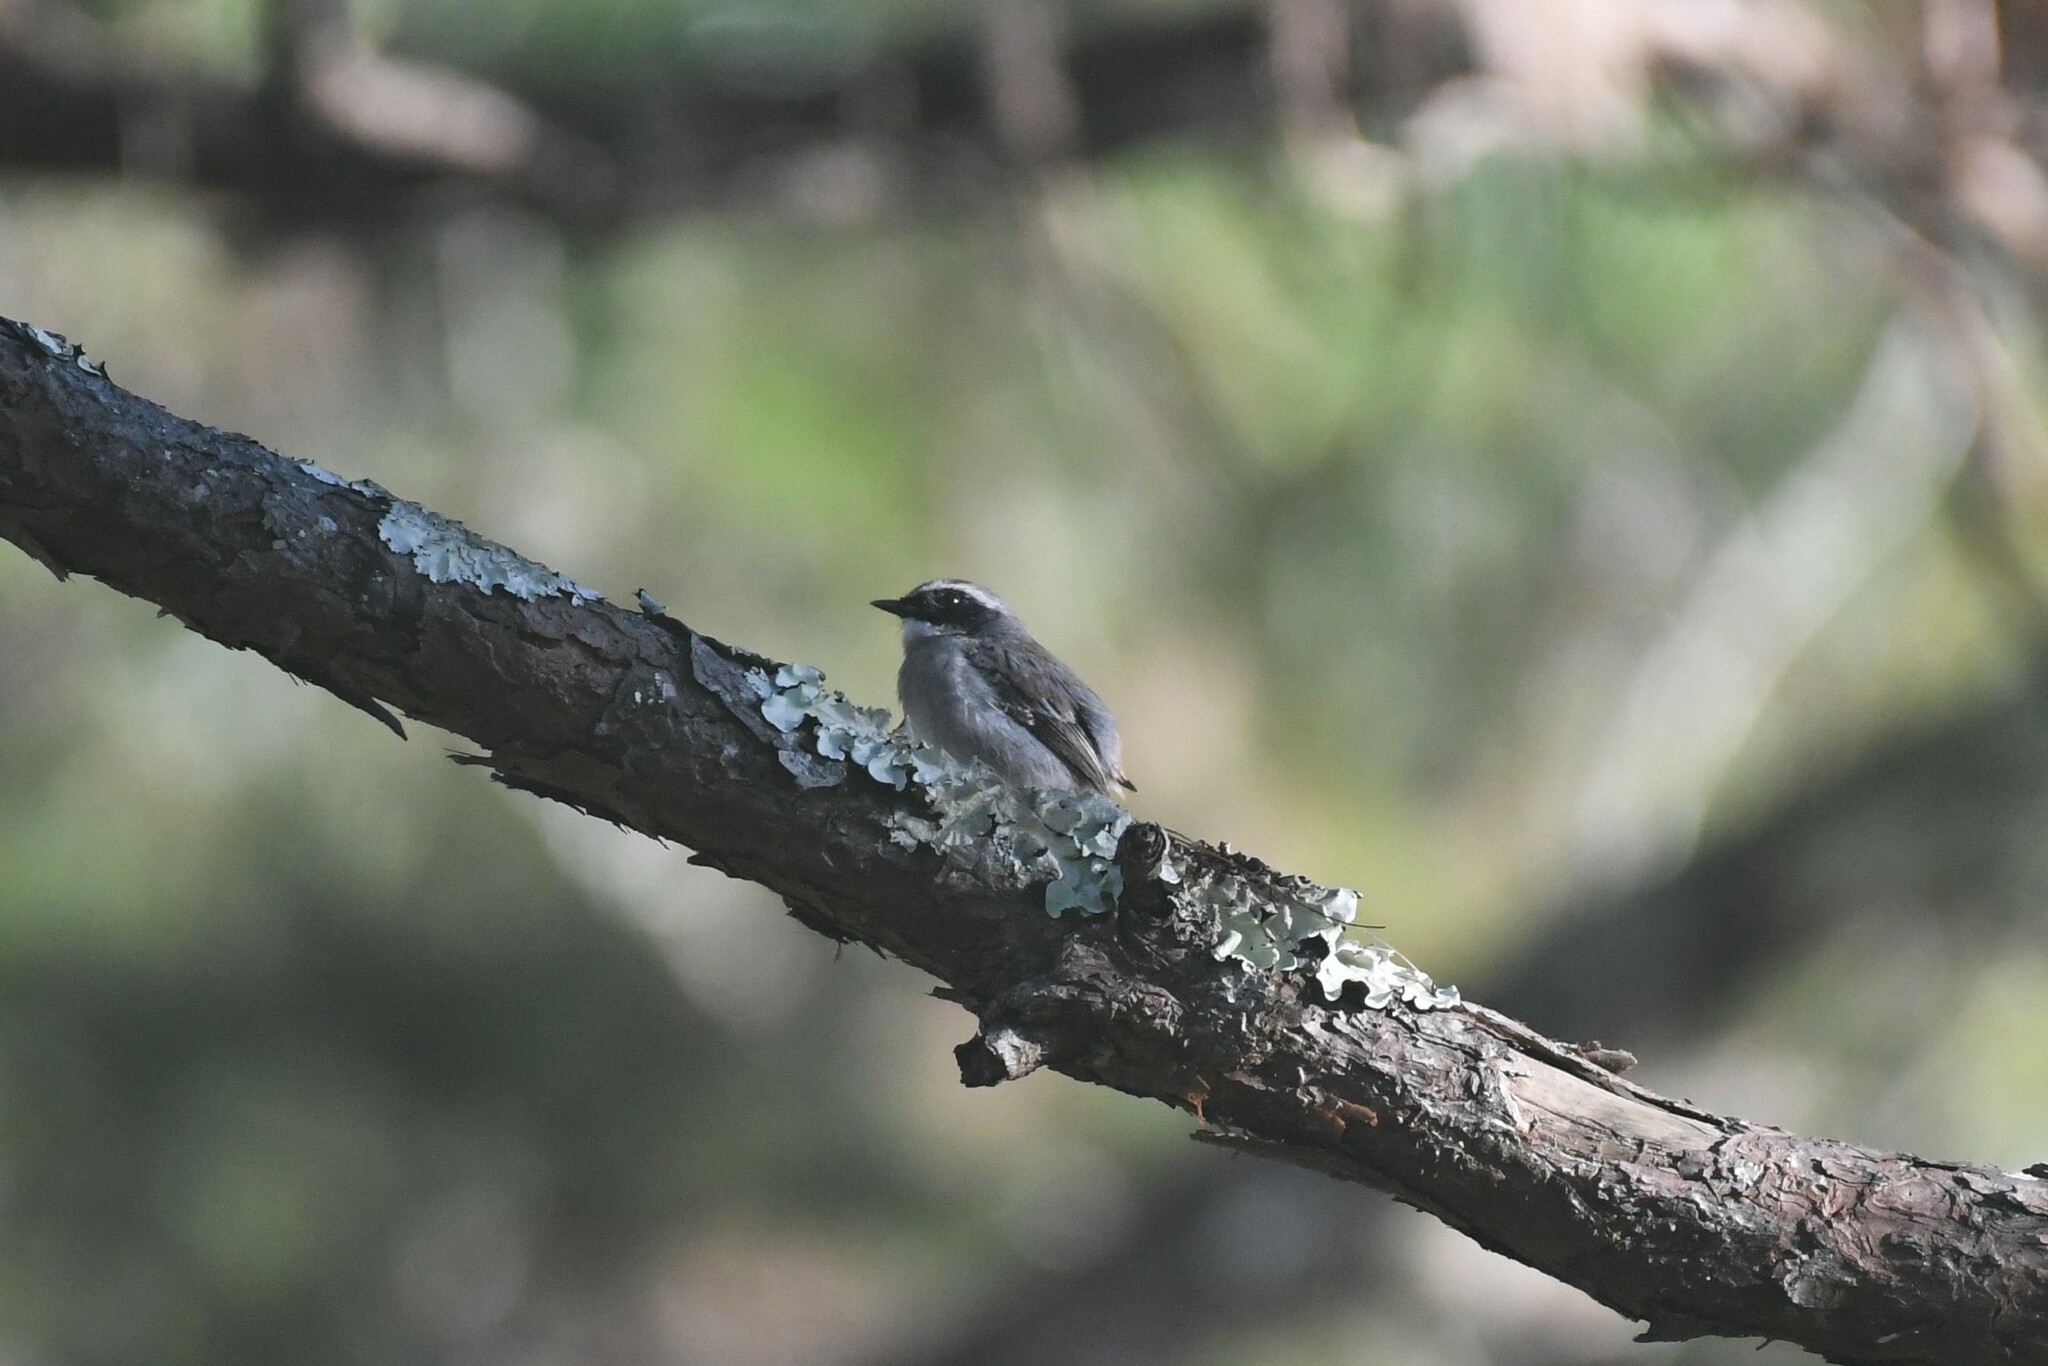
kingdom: Animalia
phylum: Chordata
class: Aves
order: Passeriformes
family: Muscicapidae
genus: Saxicola
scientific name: Saxicola ferreus
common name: Grey bush chat
